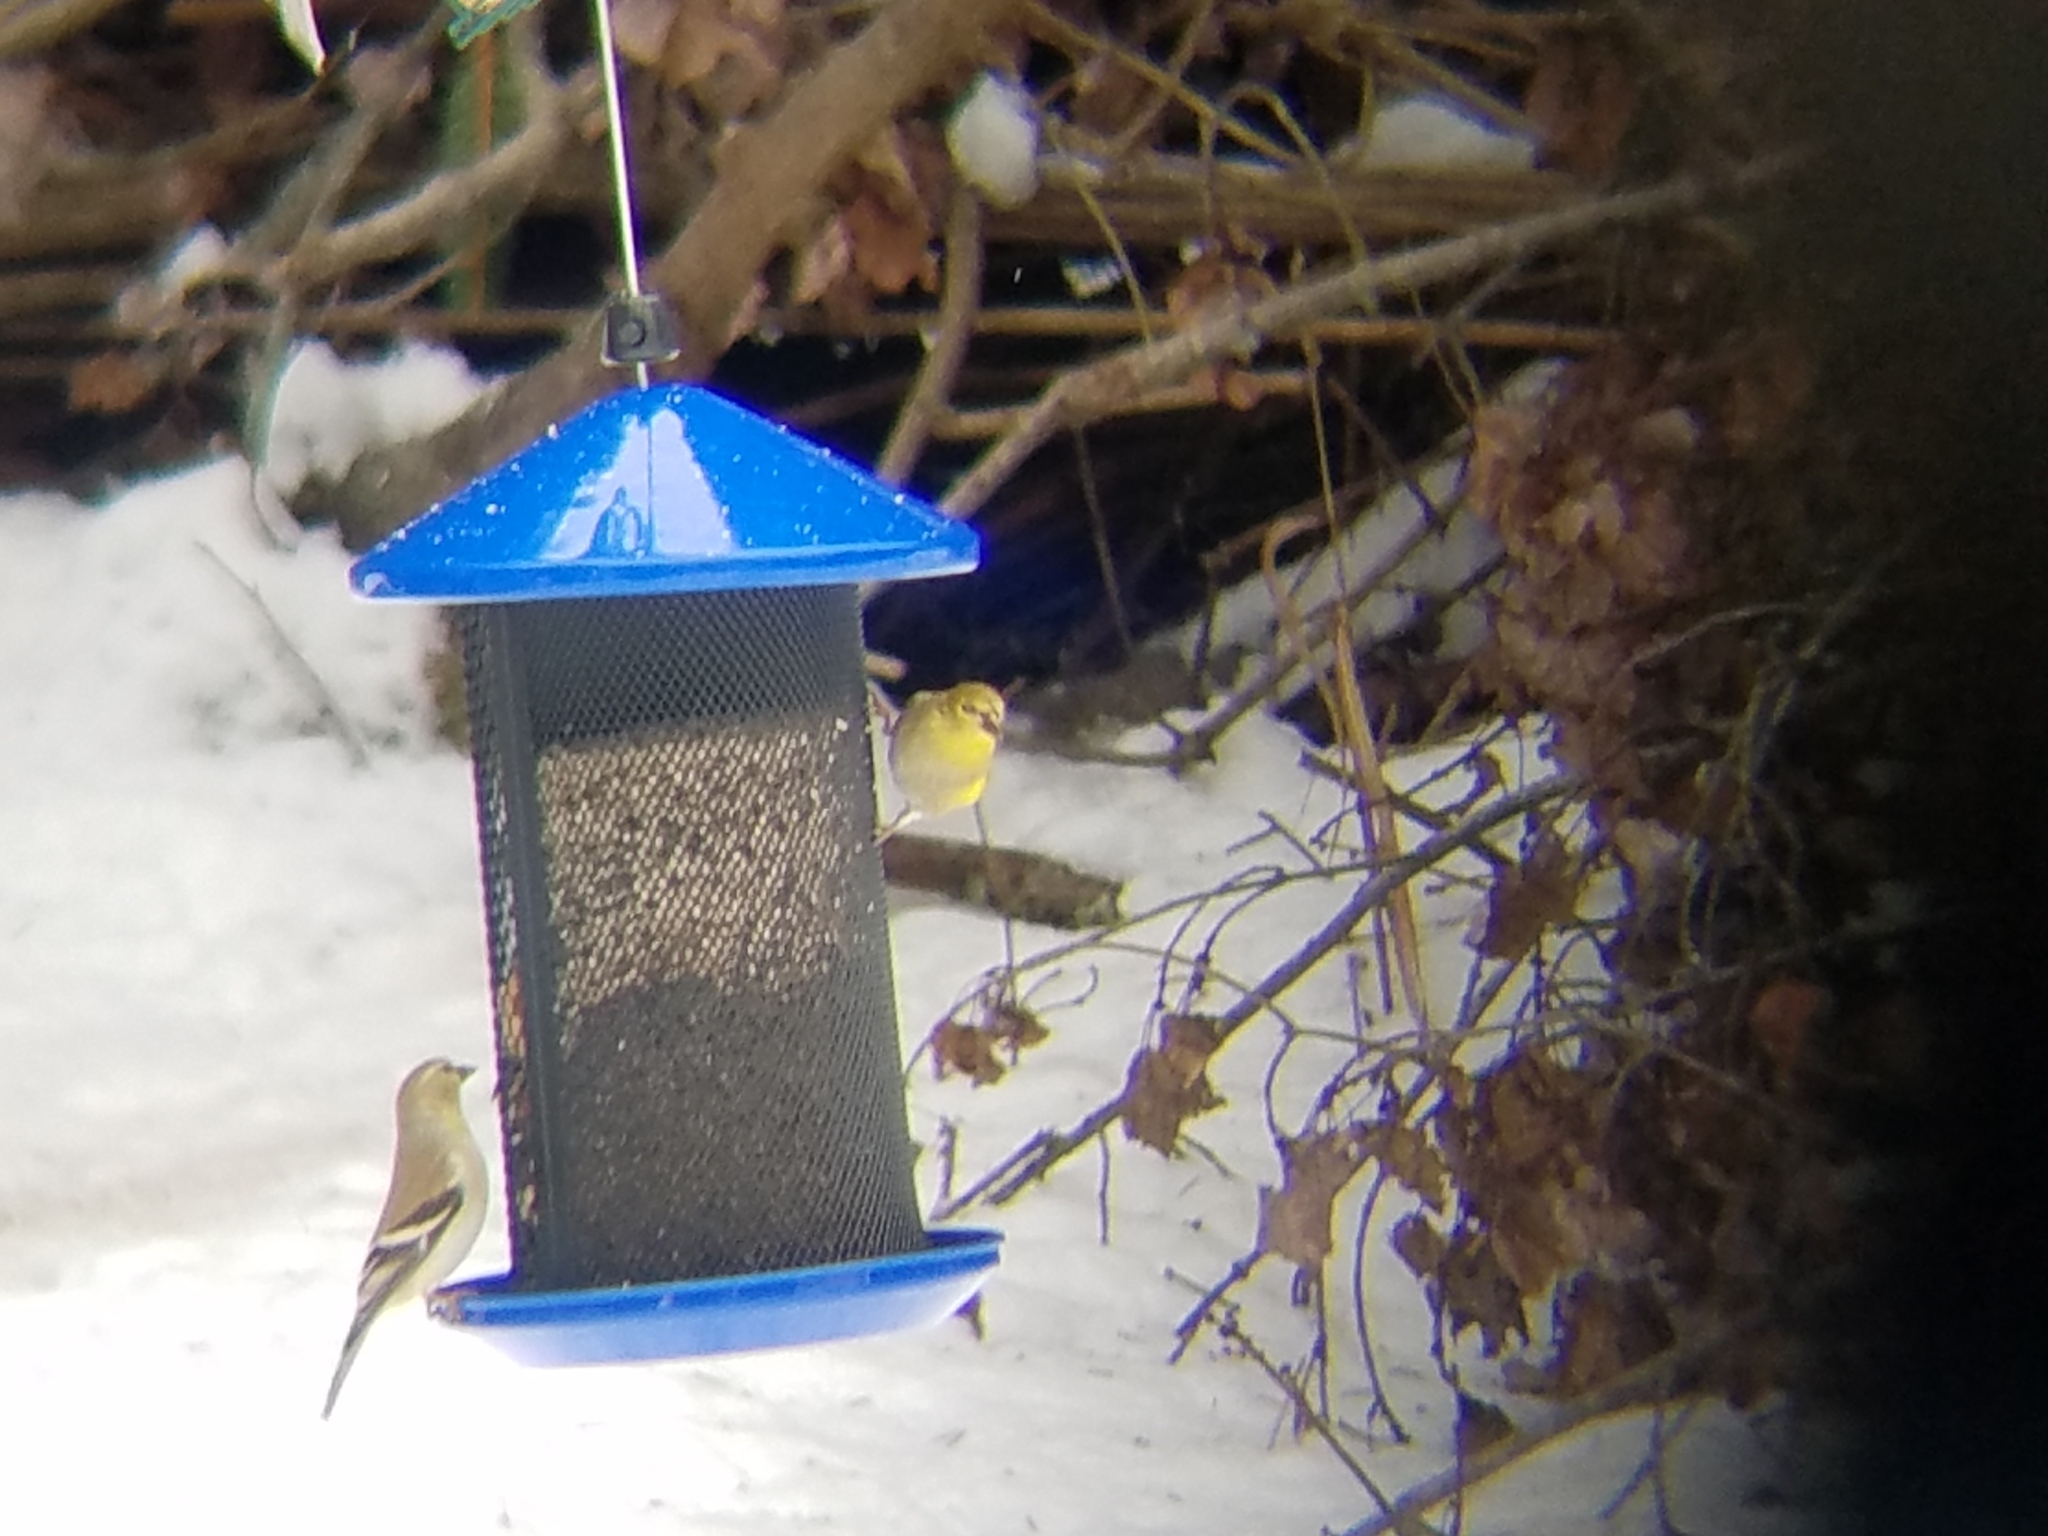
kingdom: Animalia
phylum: Chordata
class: Aves
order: Passeriformes
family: Fringillidae
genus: Spinus
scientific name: Spinus tristis
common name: American goldfinch
